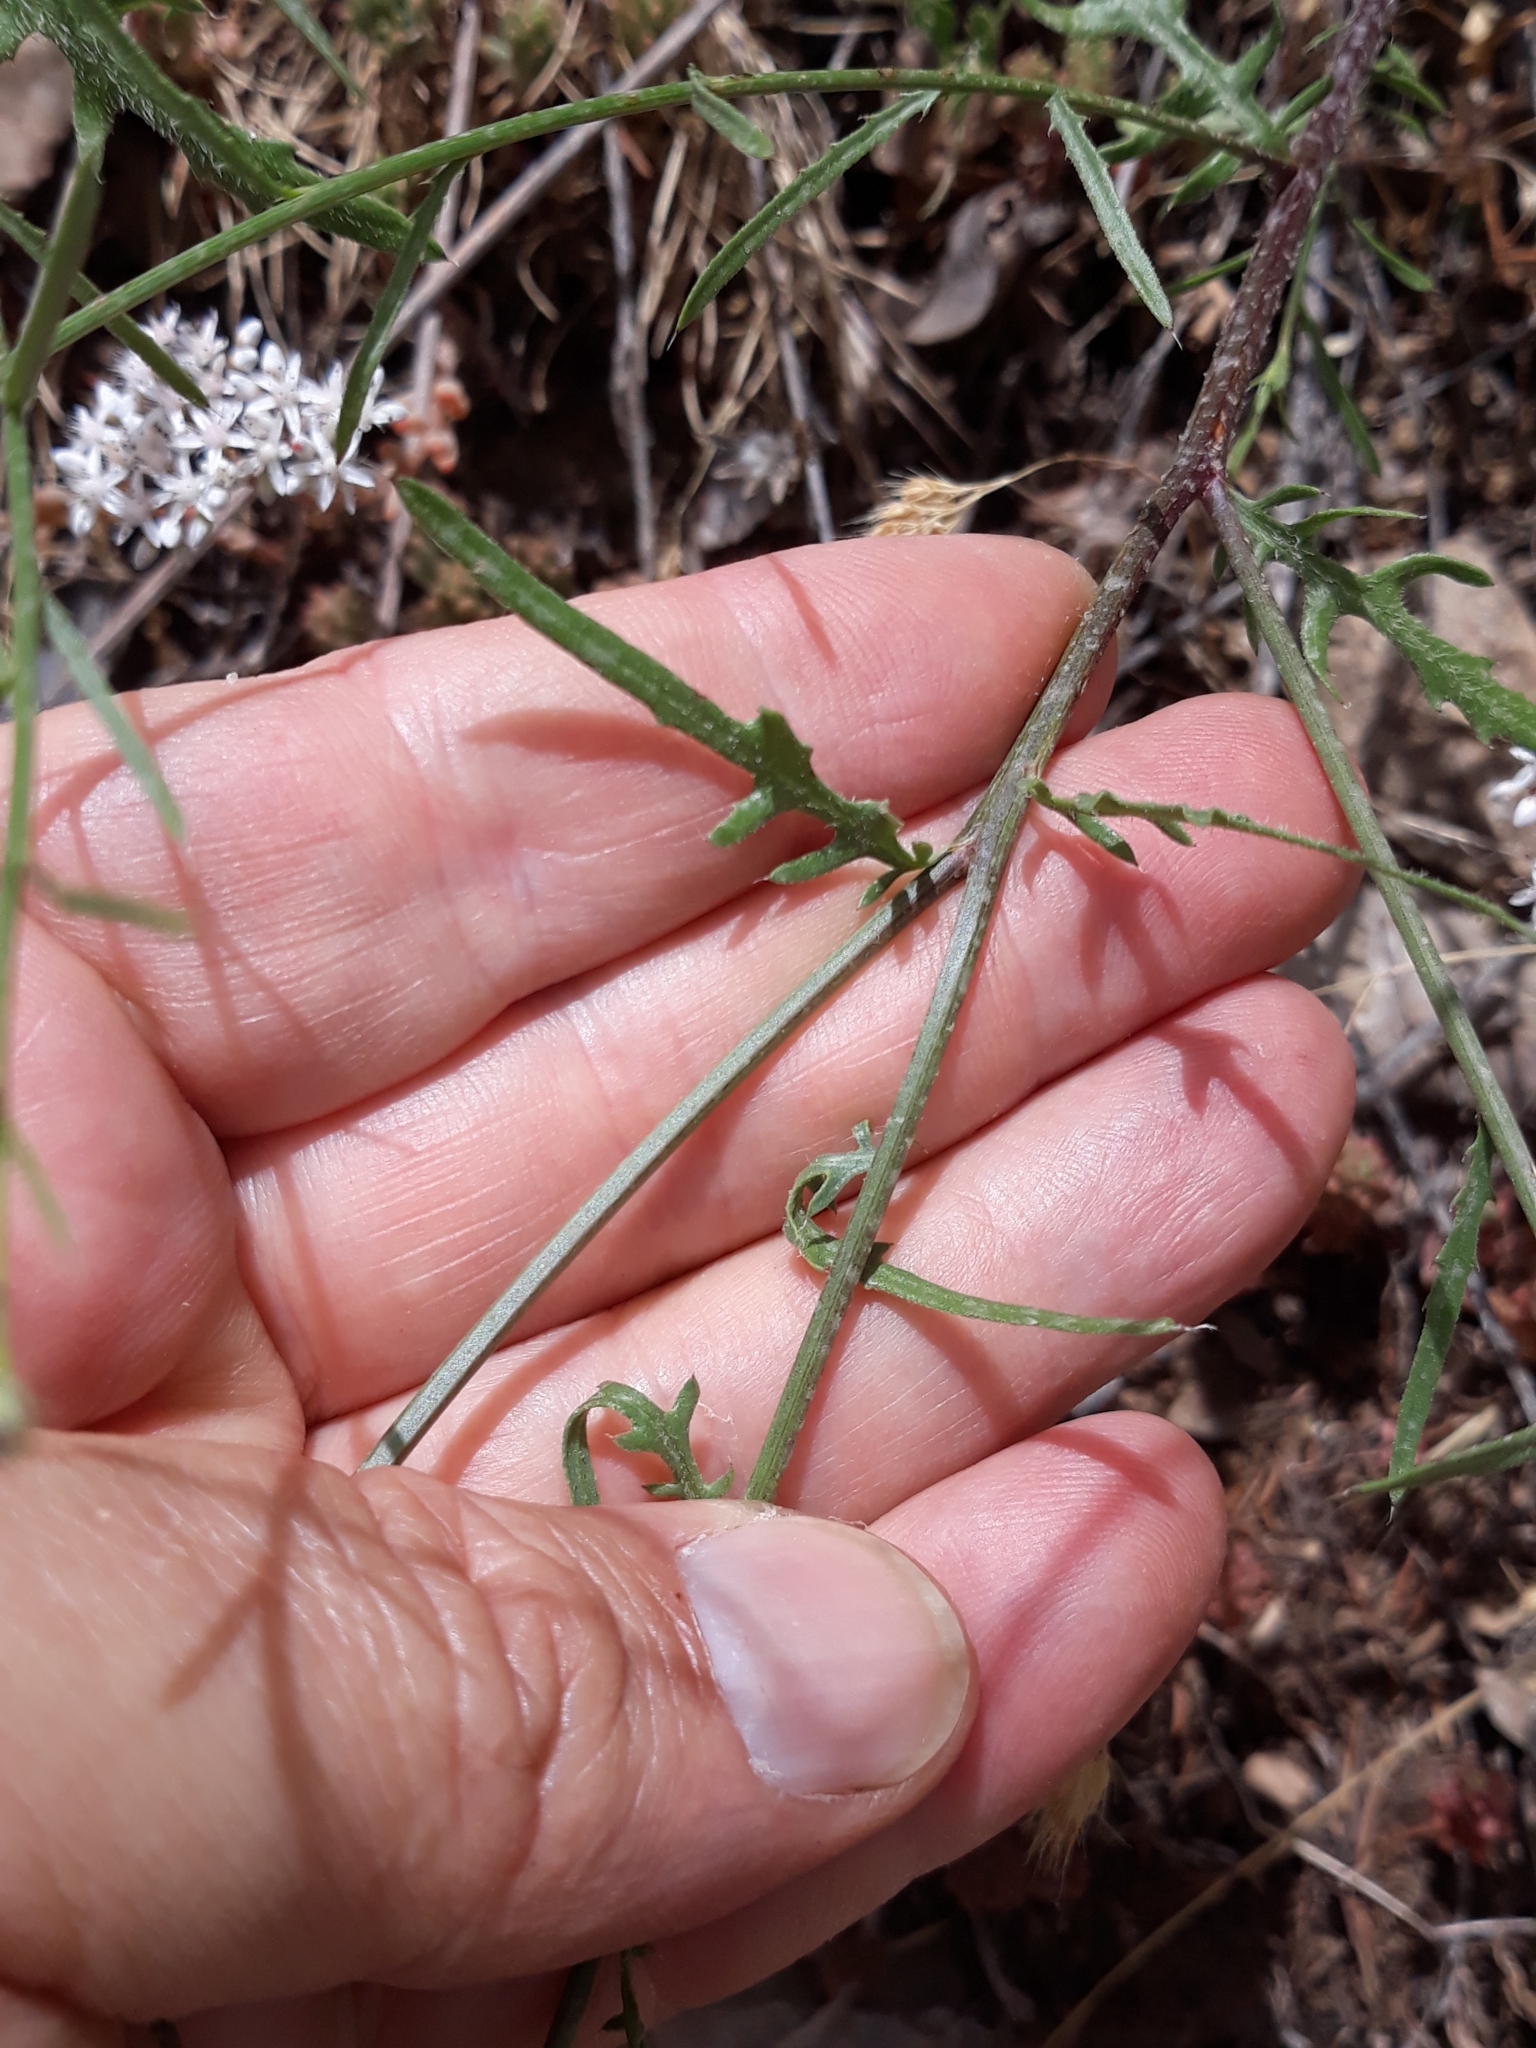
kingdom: Plantae
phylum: Tracheophyta
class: Magnoliopsida
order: Asterales
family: Asteraceae
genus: Mantisalca
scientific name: Mantisalca salmantica
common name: Dagger flower
